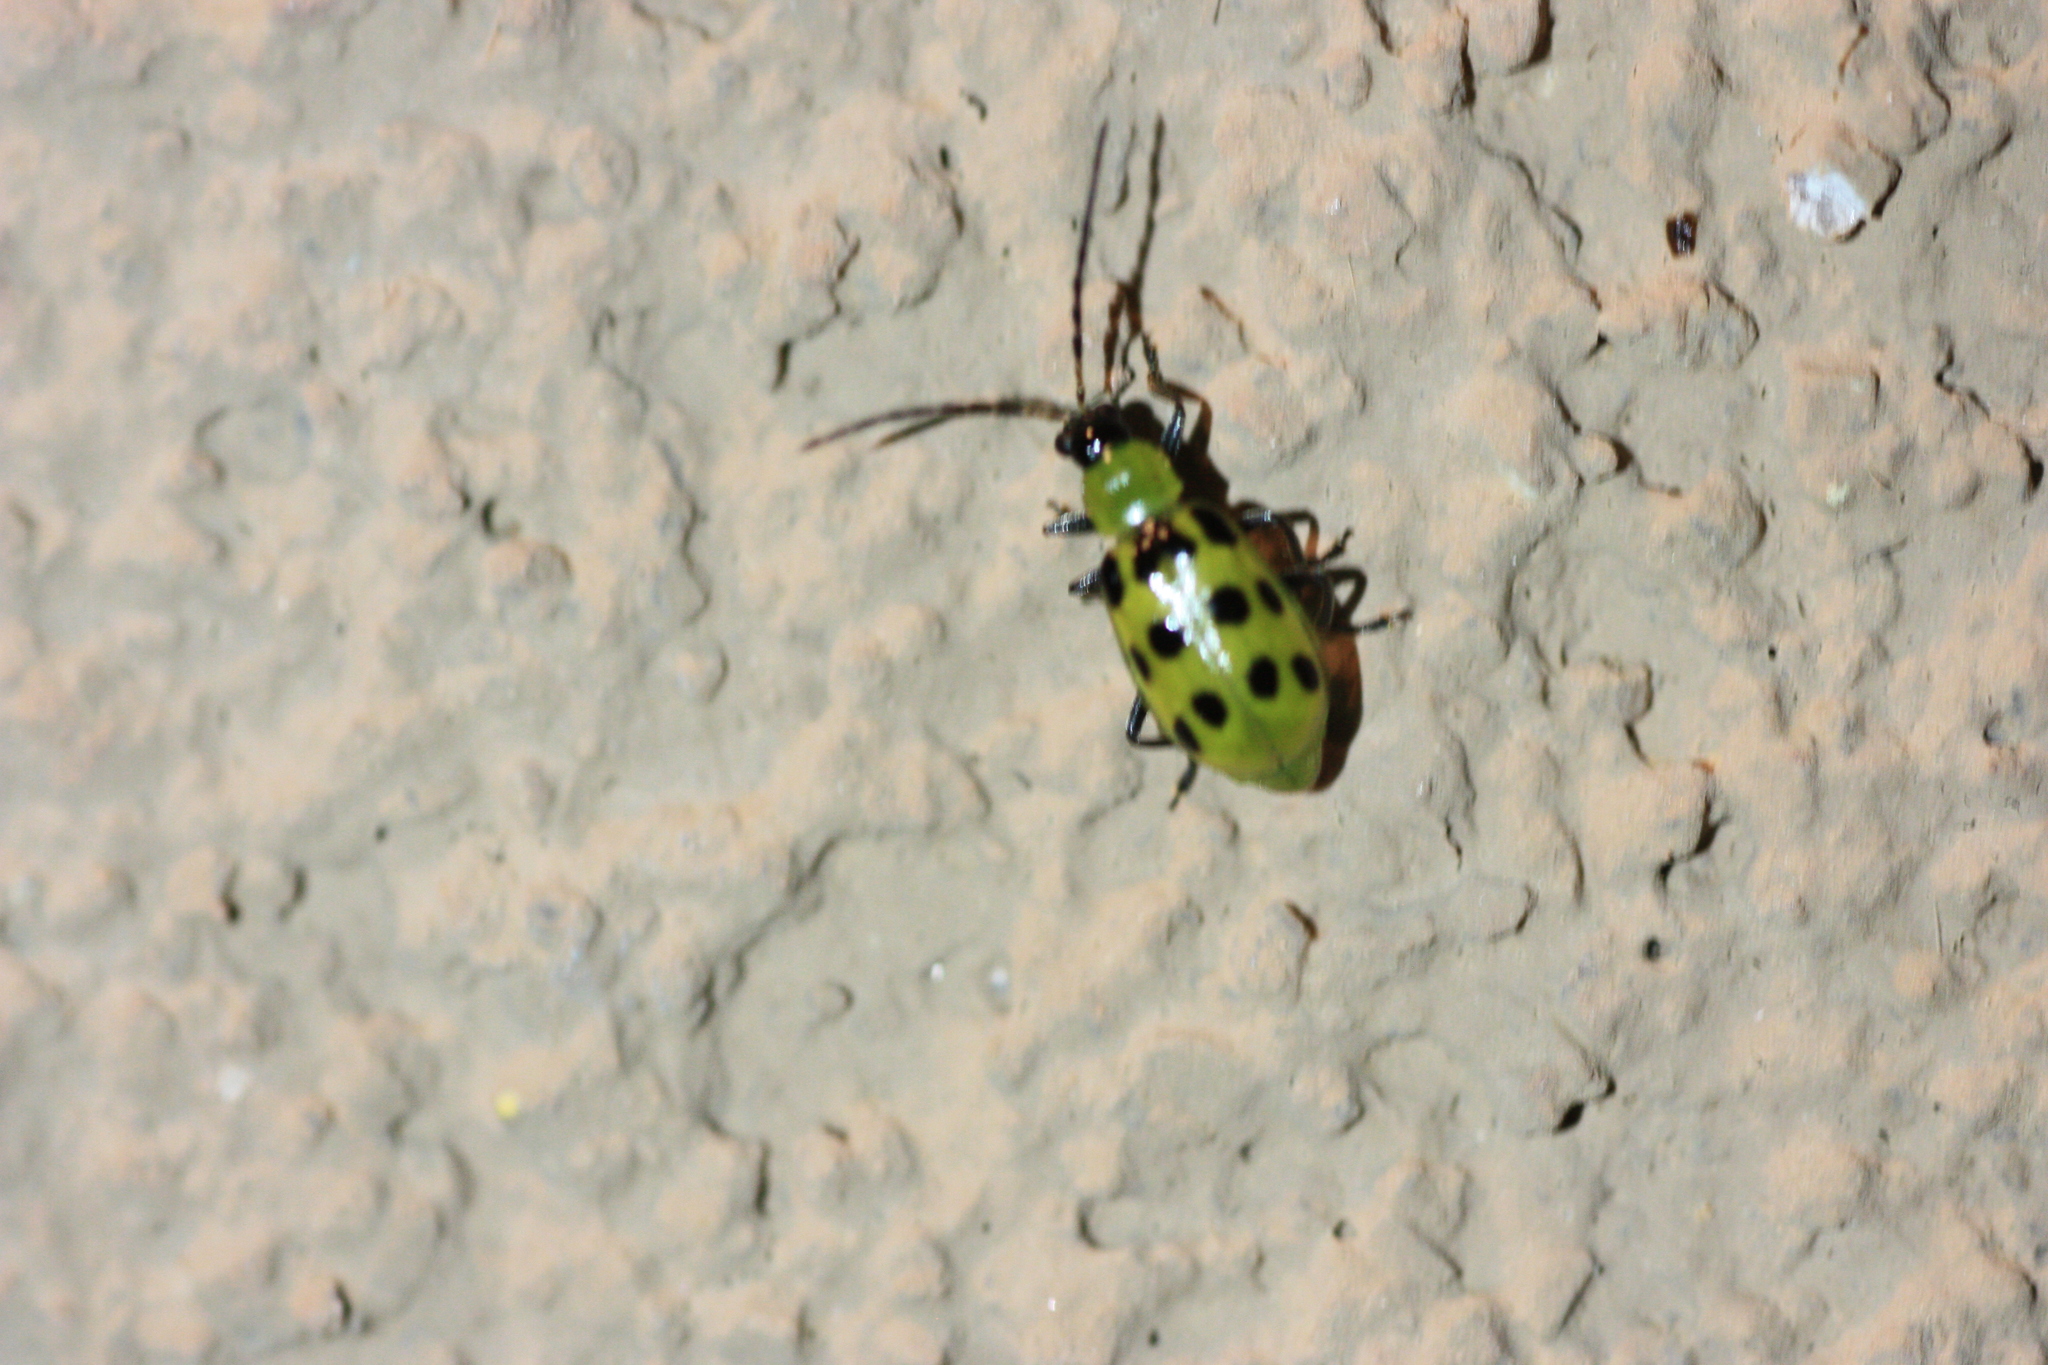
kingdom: Animalia
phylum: Arthropoda
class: Insecta
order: Coleoptera
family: Chrysomelidae
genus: Diabrotica
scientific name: Diabrotica undecimpunctata
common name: Spotted cucumber beetle
